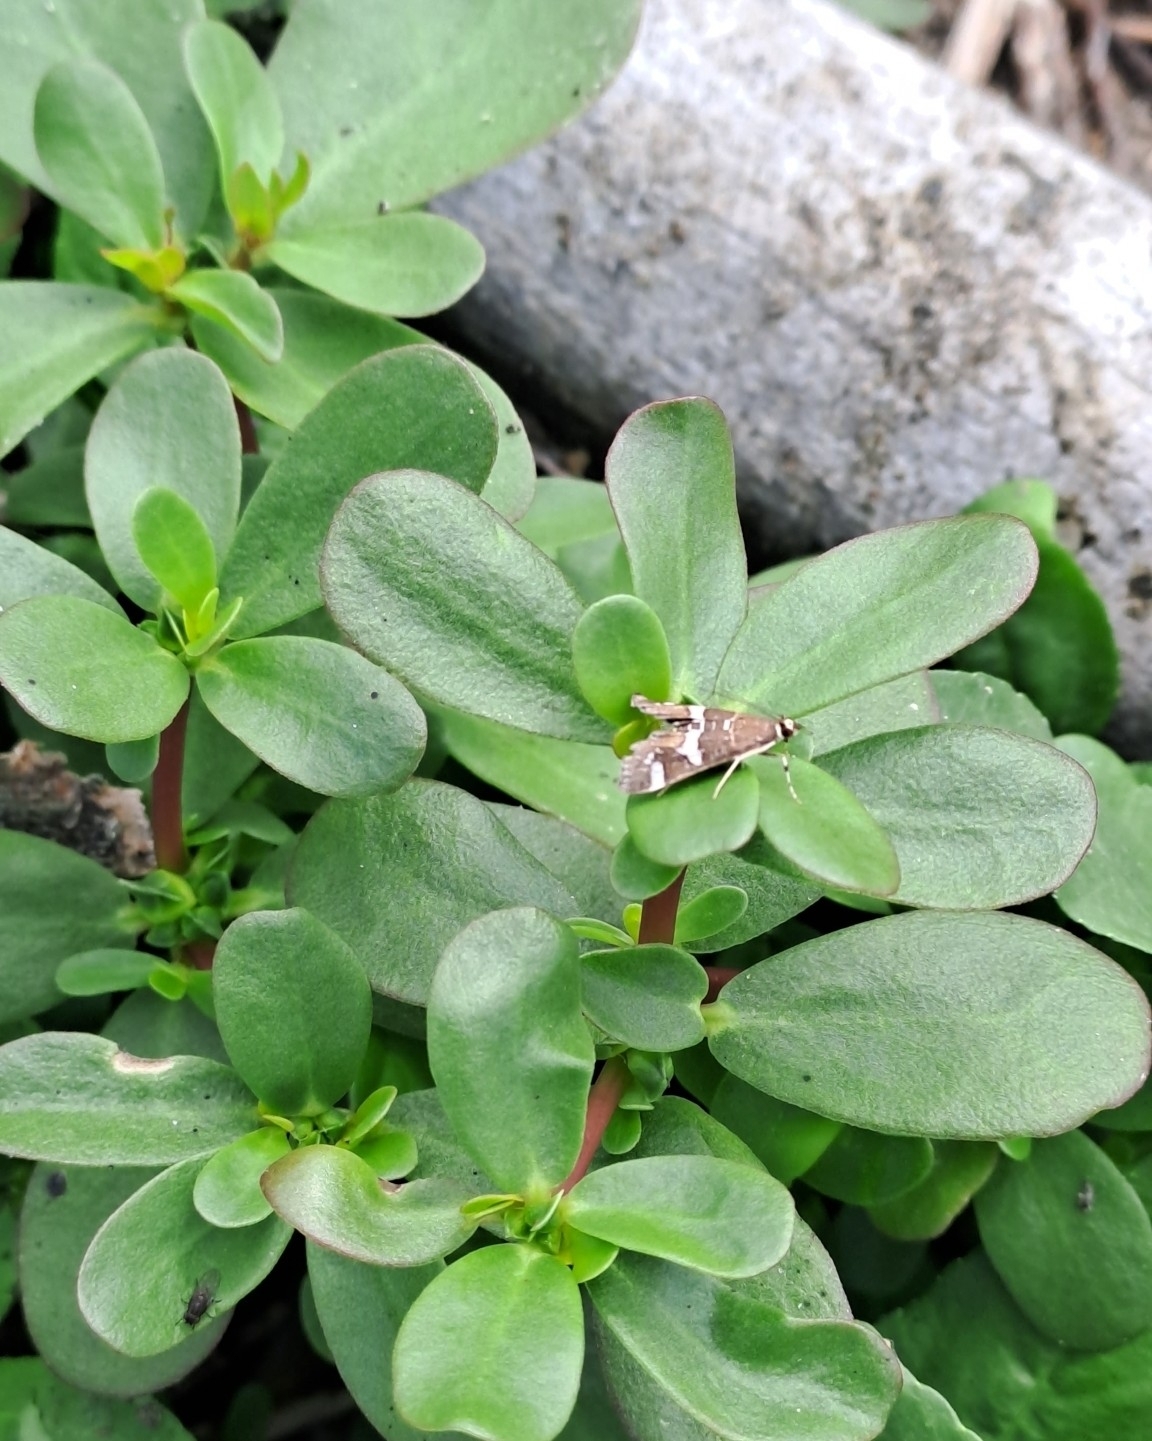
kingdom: Animalia
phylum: Arthropoda
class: Insecta
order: Lepidoptera
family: Crambidae
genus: Spoladea
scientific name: Spoladea recurvalis
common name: Beet webworm moth
